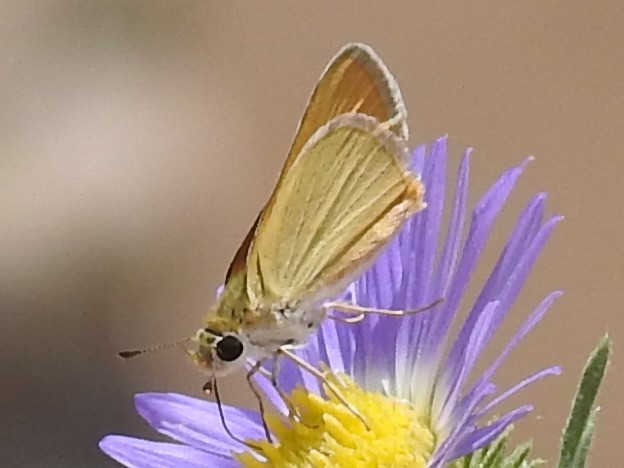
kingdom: Animalia
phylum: Arthropoda
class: Insecta
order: Lepidoptera
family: Hesperiidae
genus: Copaeodes
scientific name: Copaeodes aurantiaca
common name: Orange skipperling
